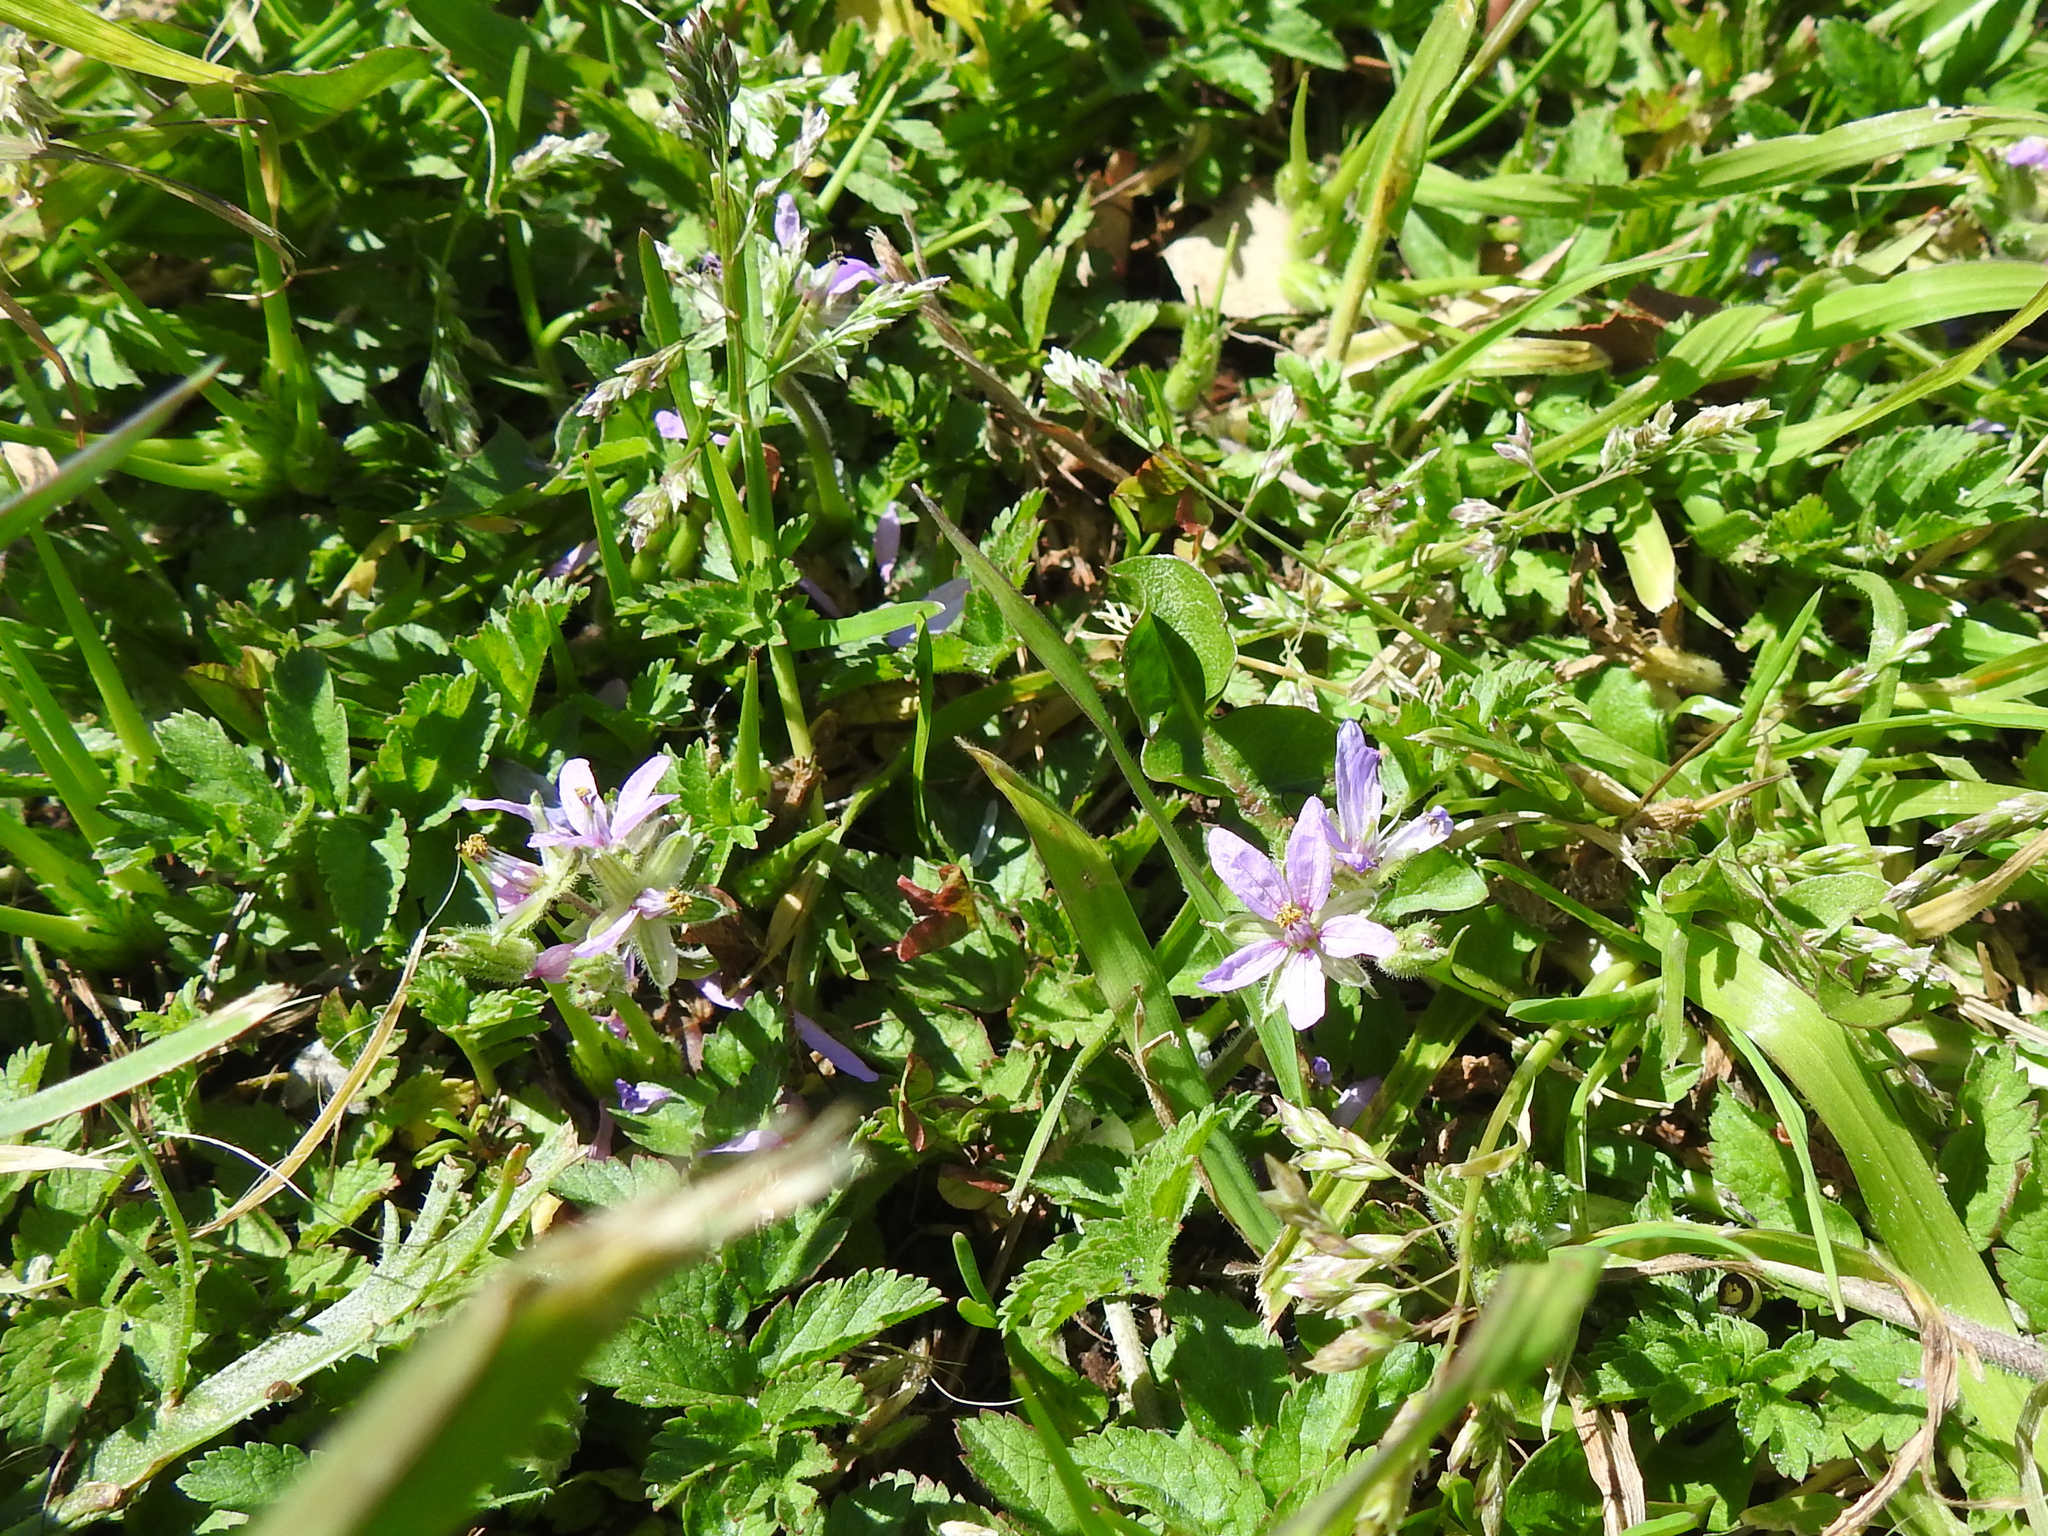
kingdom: Plantae
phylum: Tracheophyta
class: Magnoliopsida
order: Geraniales
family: Geraniaceae
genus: Erodium
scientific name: Erodium moschatum
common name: Musk stork's-bill
